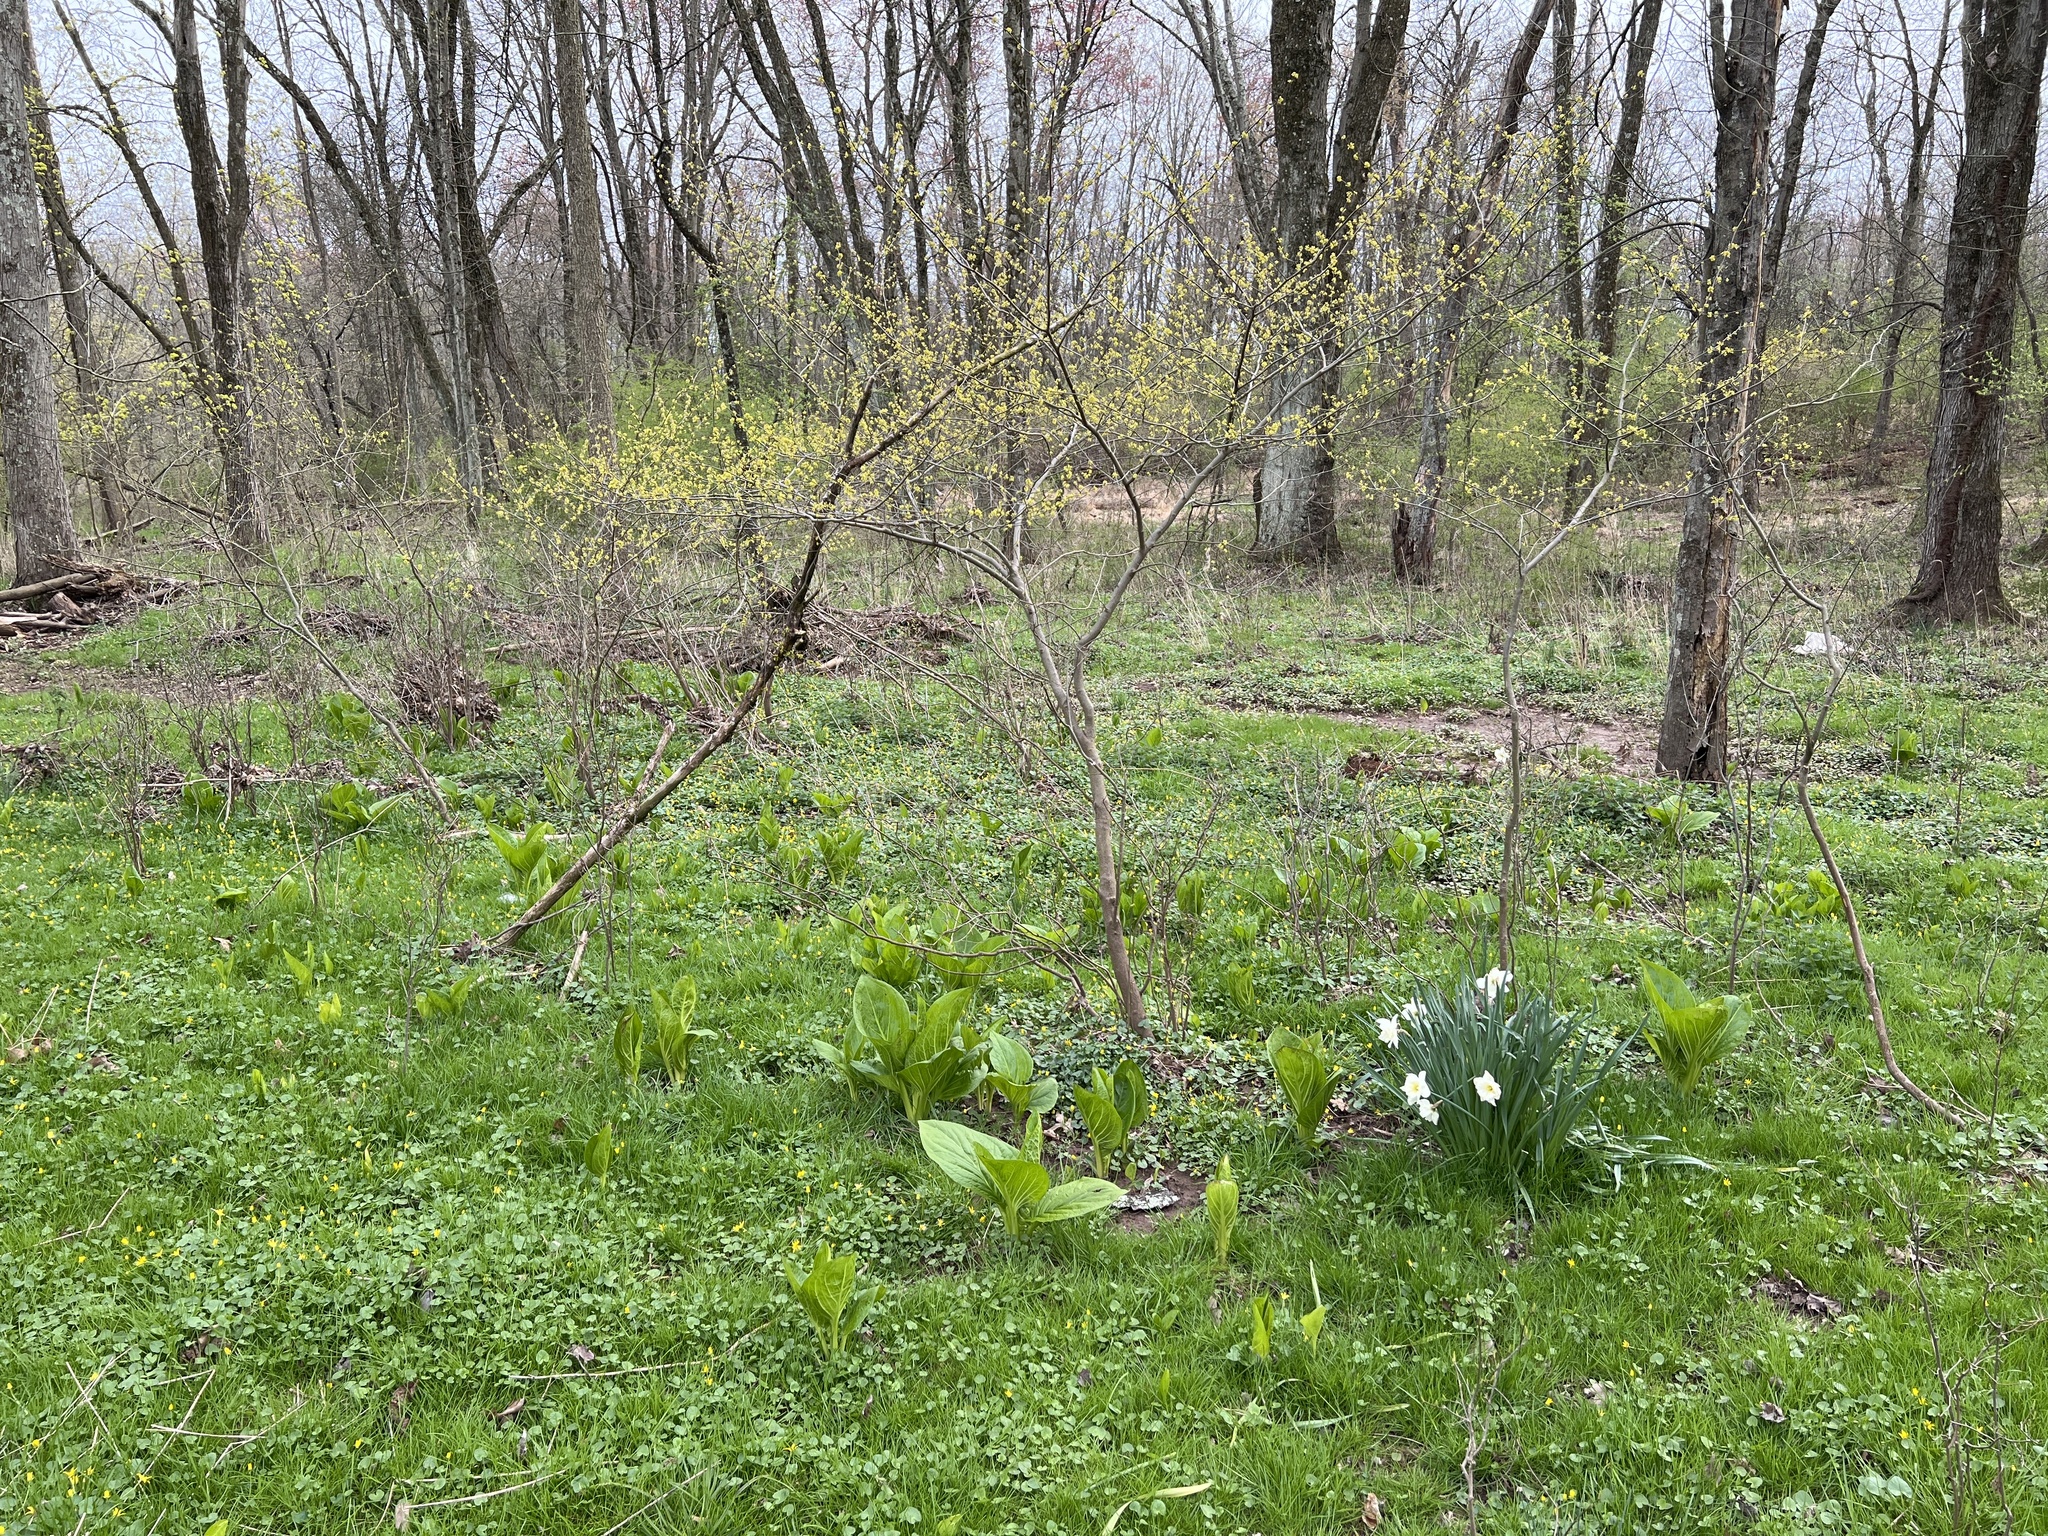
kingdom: Plantae
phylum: Tracheophyta
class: Liliopsida
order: Alismatales
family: Araceae
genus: Symplocarpus
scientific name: Symplocarpus foetidus
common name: Eastern skunk cabbage
